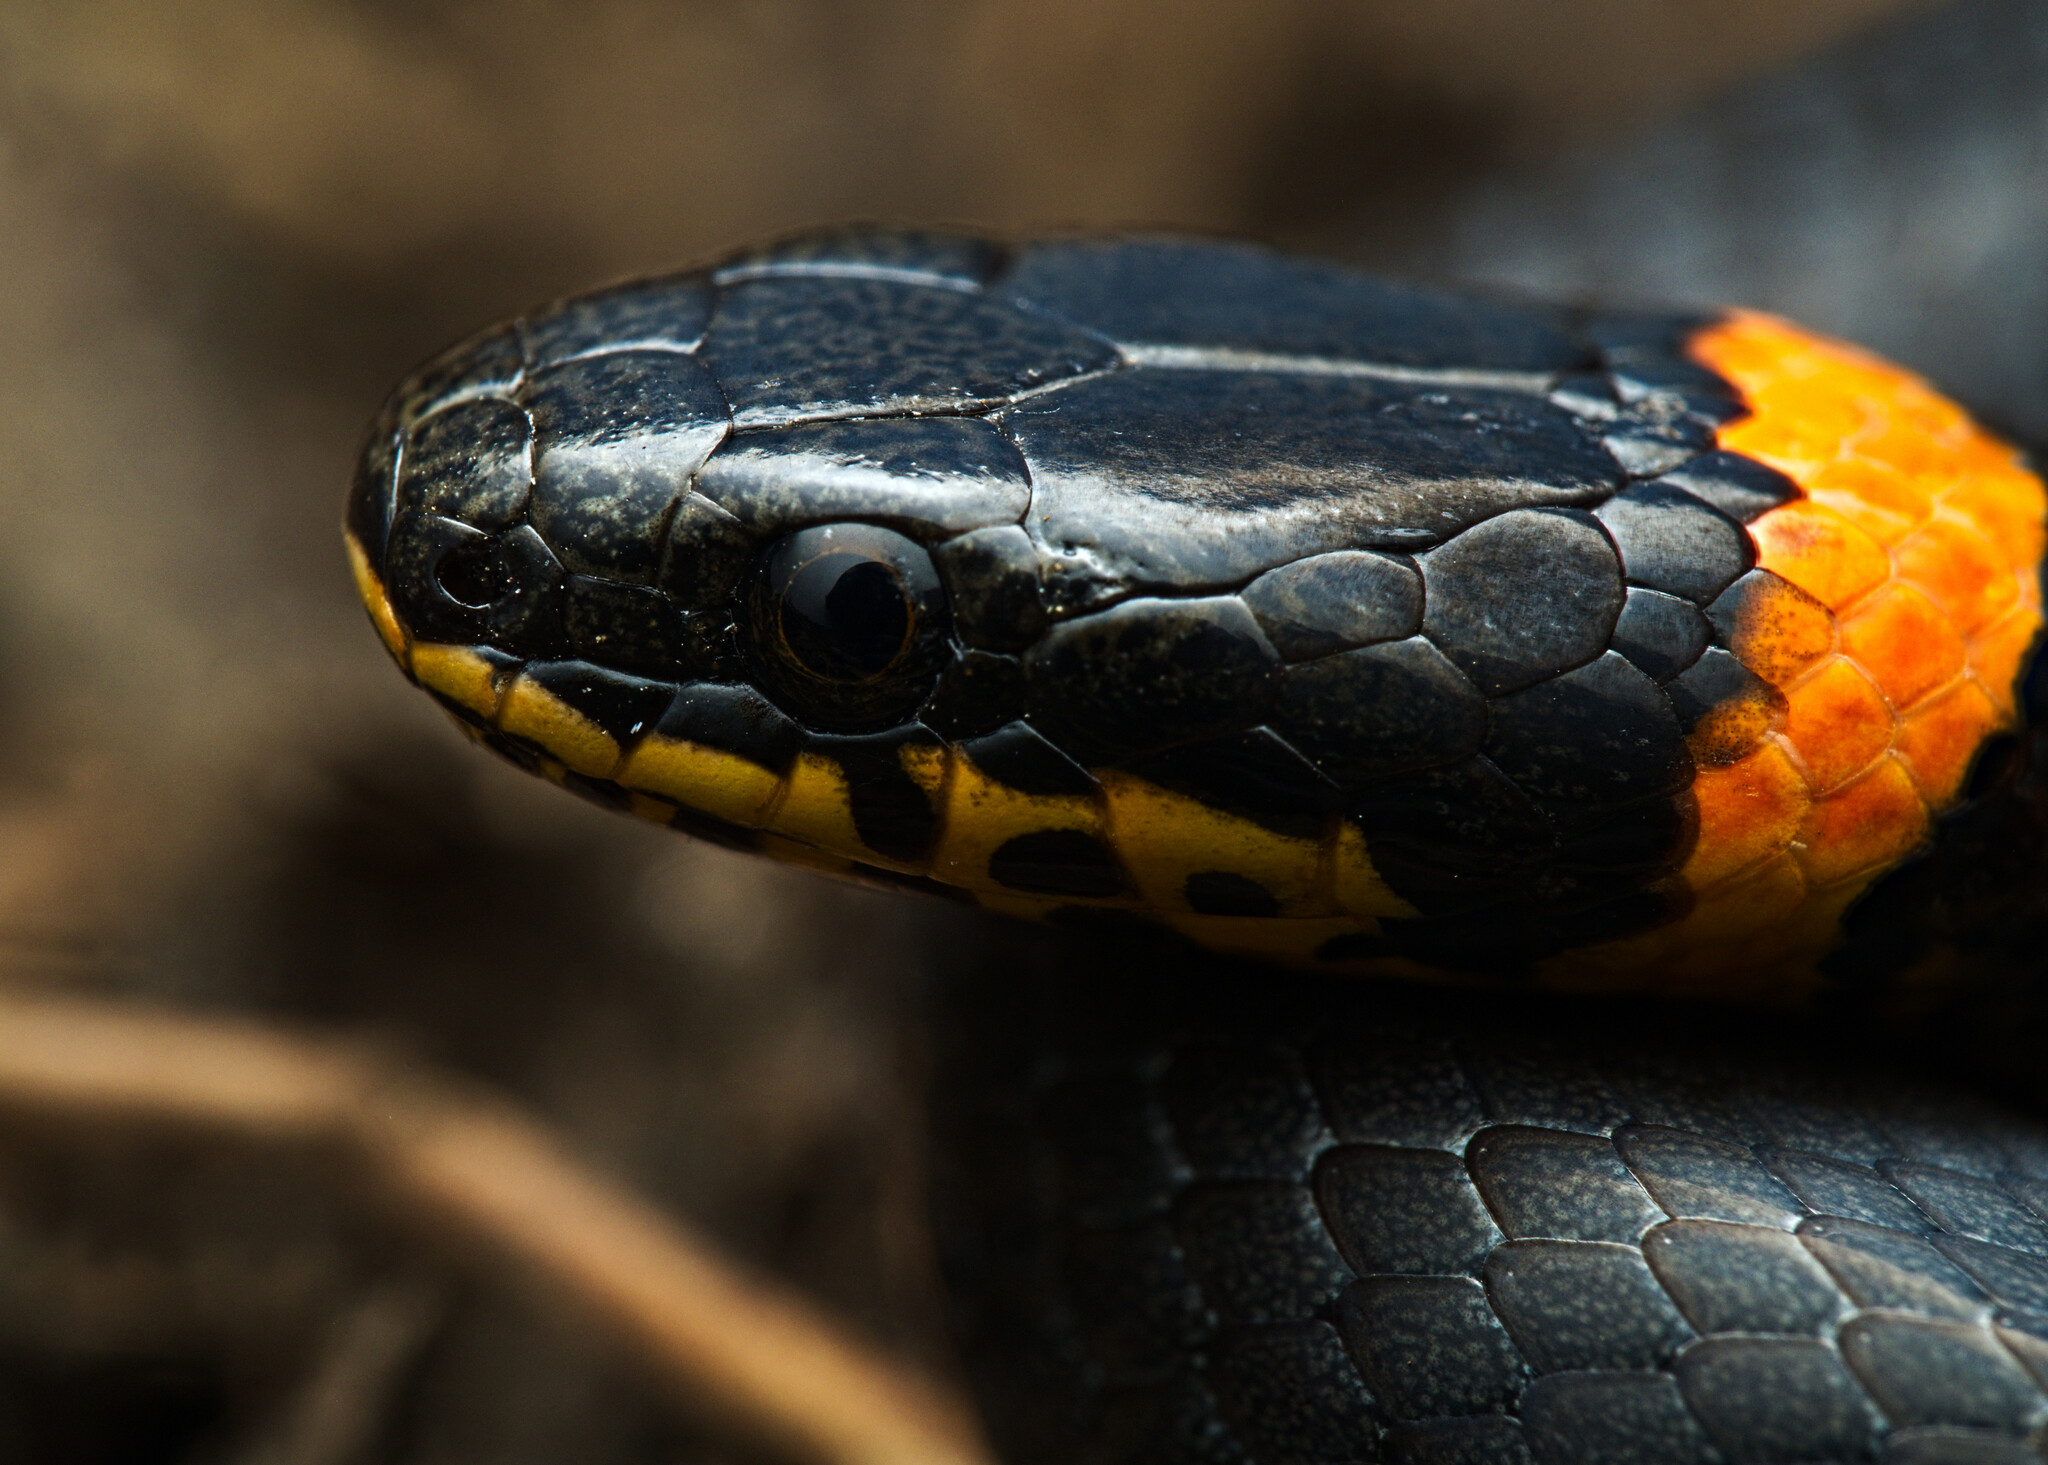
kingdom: Animalia
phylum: Chordata
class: Squamata
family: Colubridae
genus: Diadophis
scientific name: Diadophis punctatus
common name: Ringneck snake
